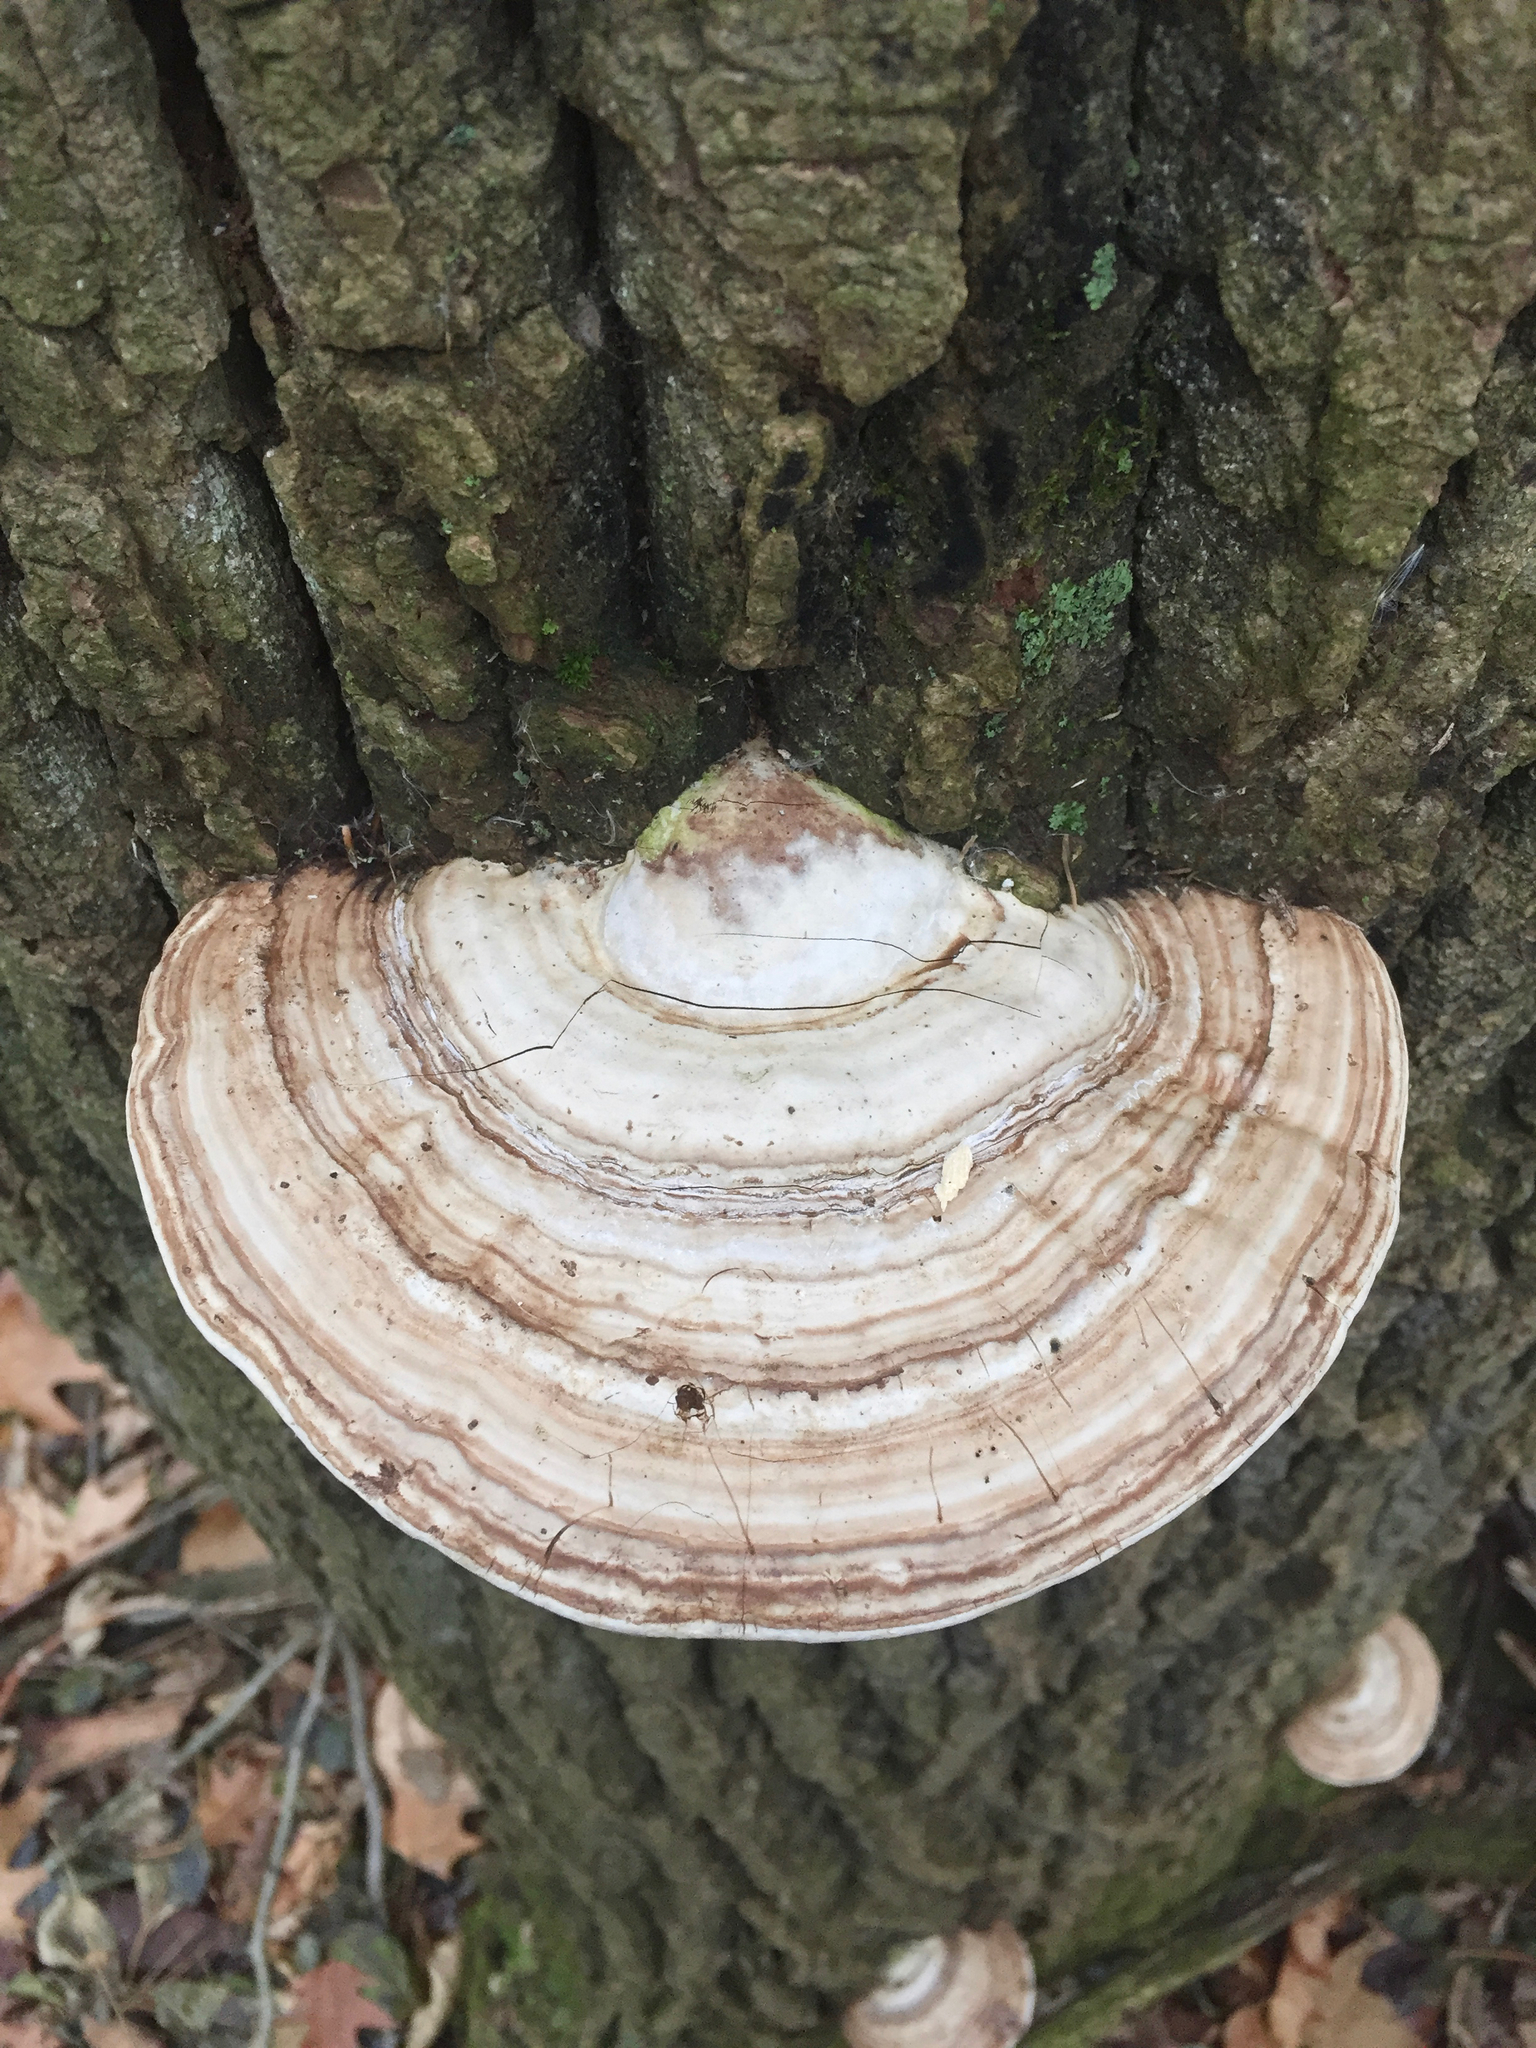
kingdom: Fungi
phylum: Basidiomycota
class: Agaricomycetes
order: Polyporales
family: Polyporaceae
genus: Ganoderma
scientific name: Ganoderma applanatum
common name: Artist's bracket
